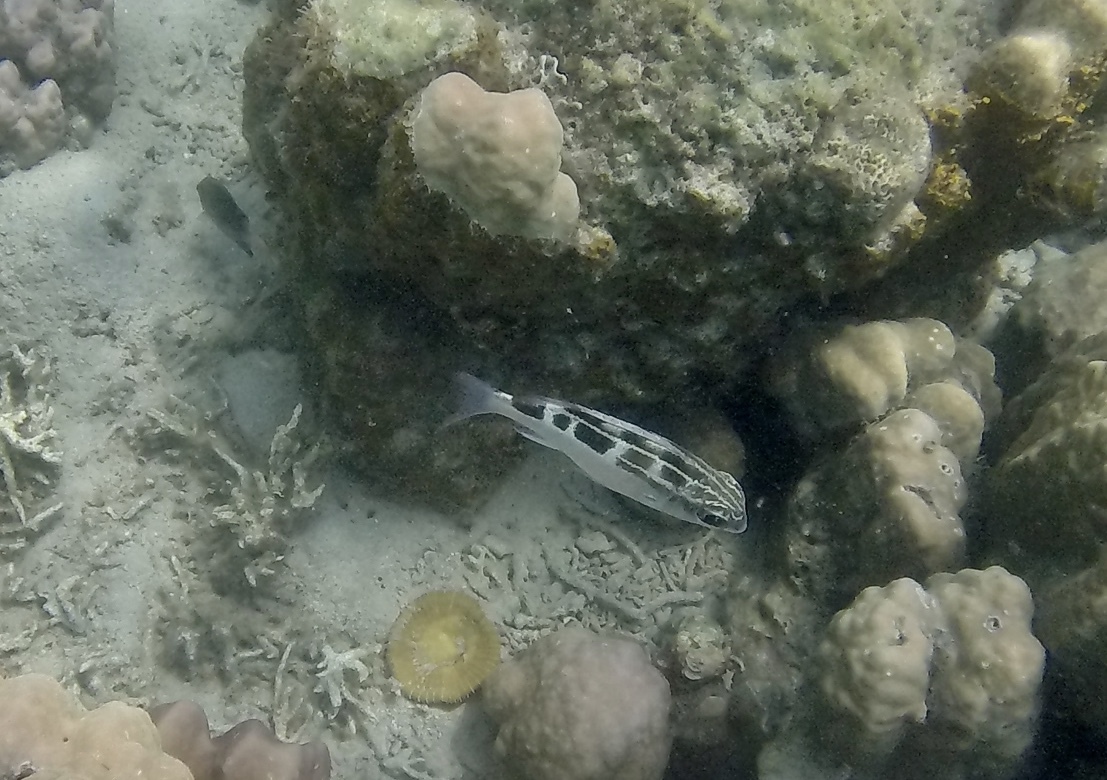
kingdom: Animalia
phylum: Chordata
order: Perciformes
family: Nemipteridae
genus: Scolopsis
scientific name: Scolopsis lineata
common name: Striped monocle bream
